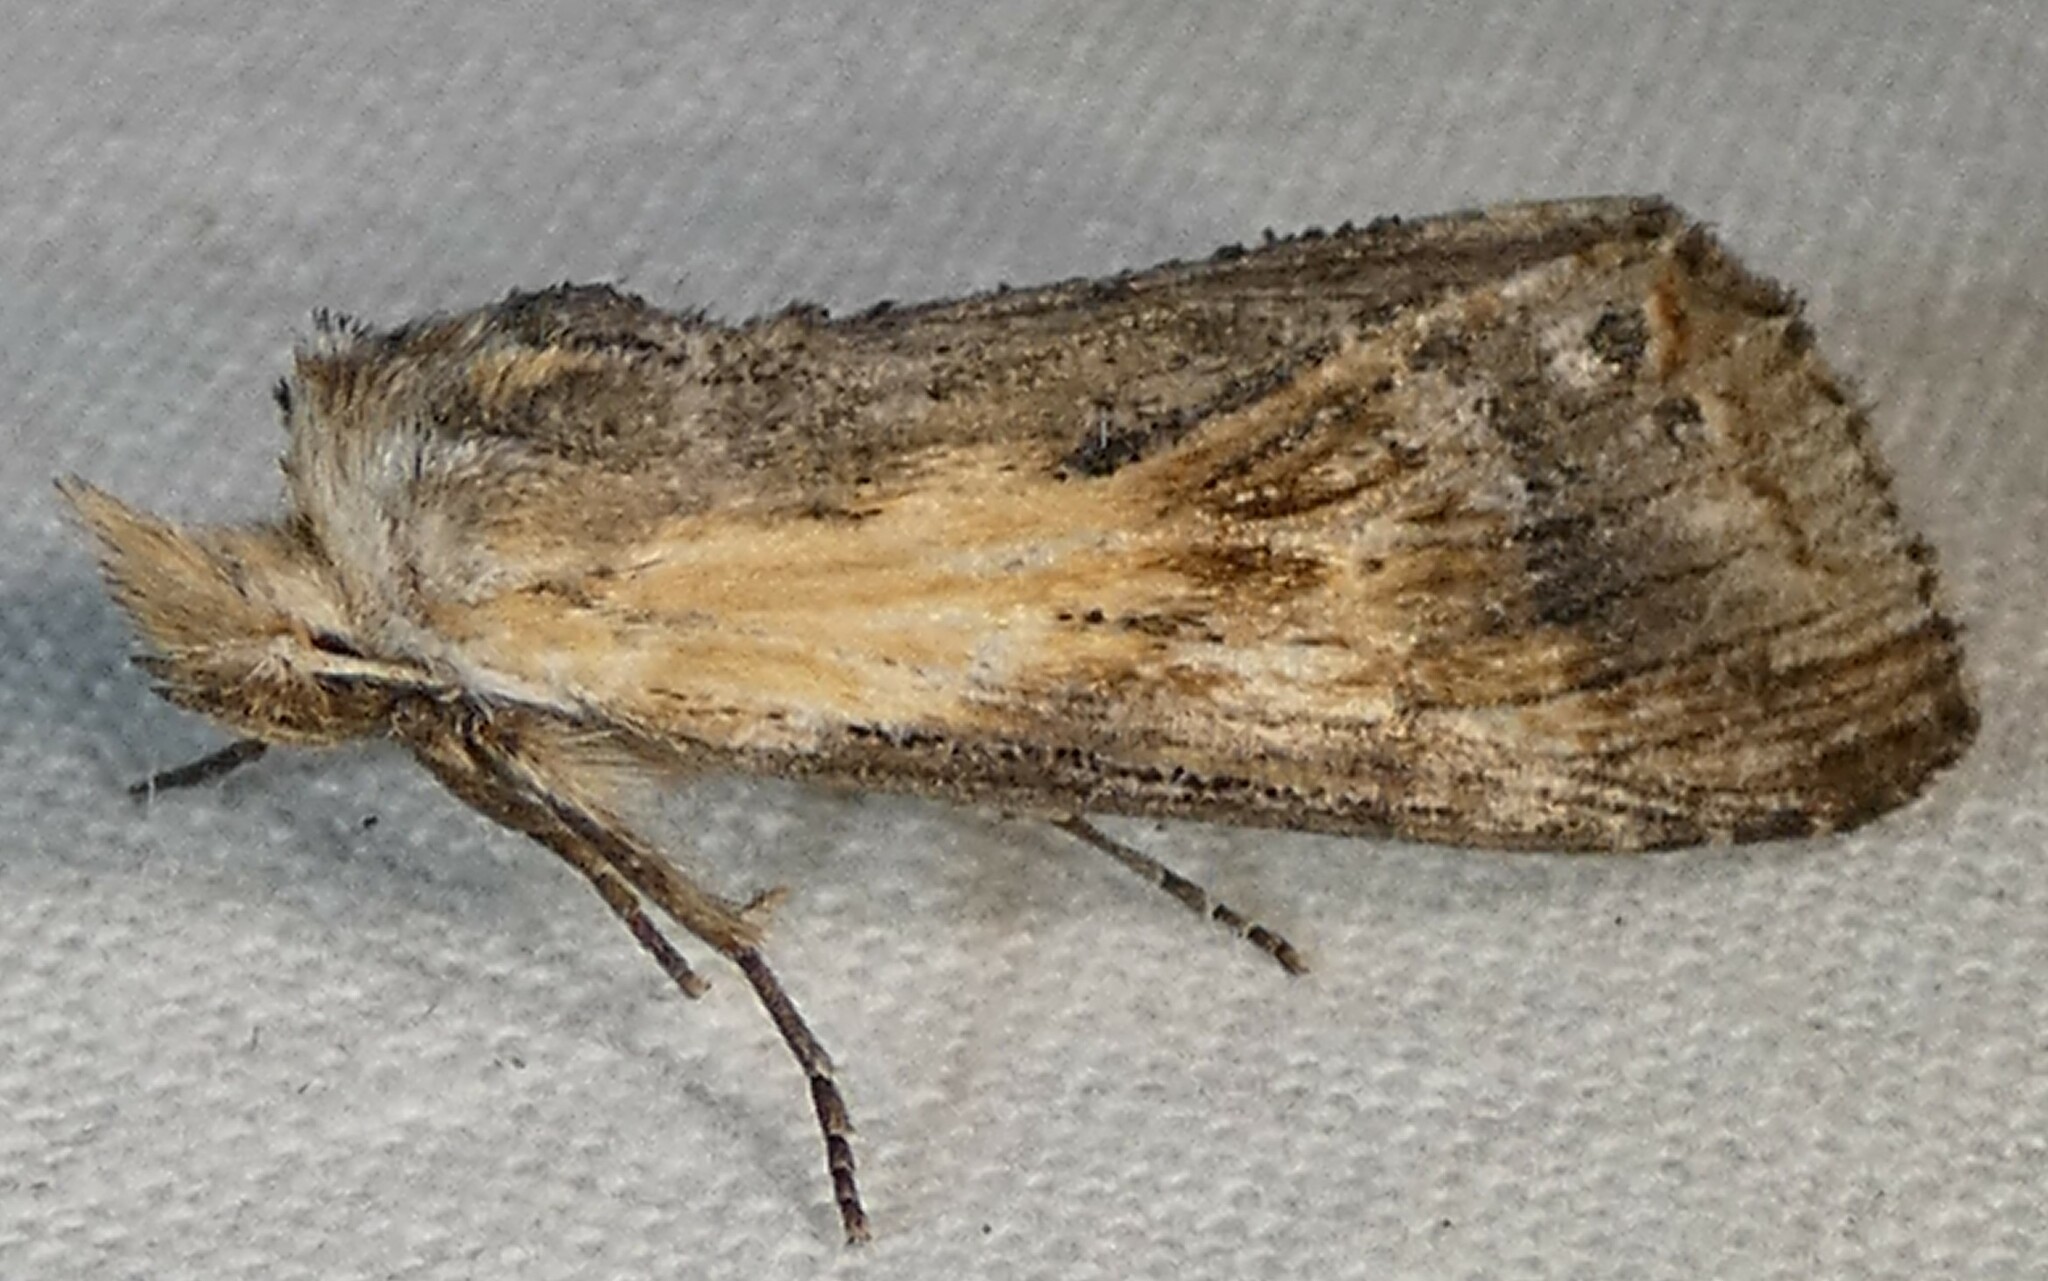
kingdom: Animalia
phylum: Arthropoda
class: Insecta
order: Lepidoptera
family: Notodontidae
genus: Dasylophia
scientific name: Dasylophia anguina
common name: Black-spotted prominent
